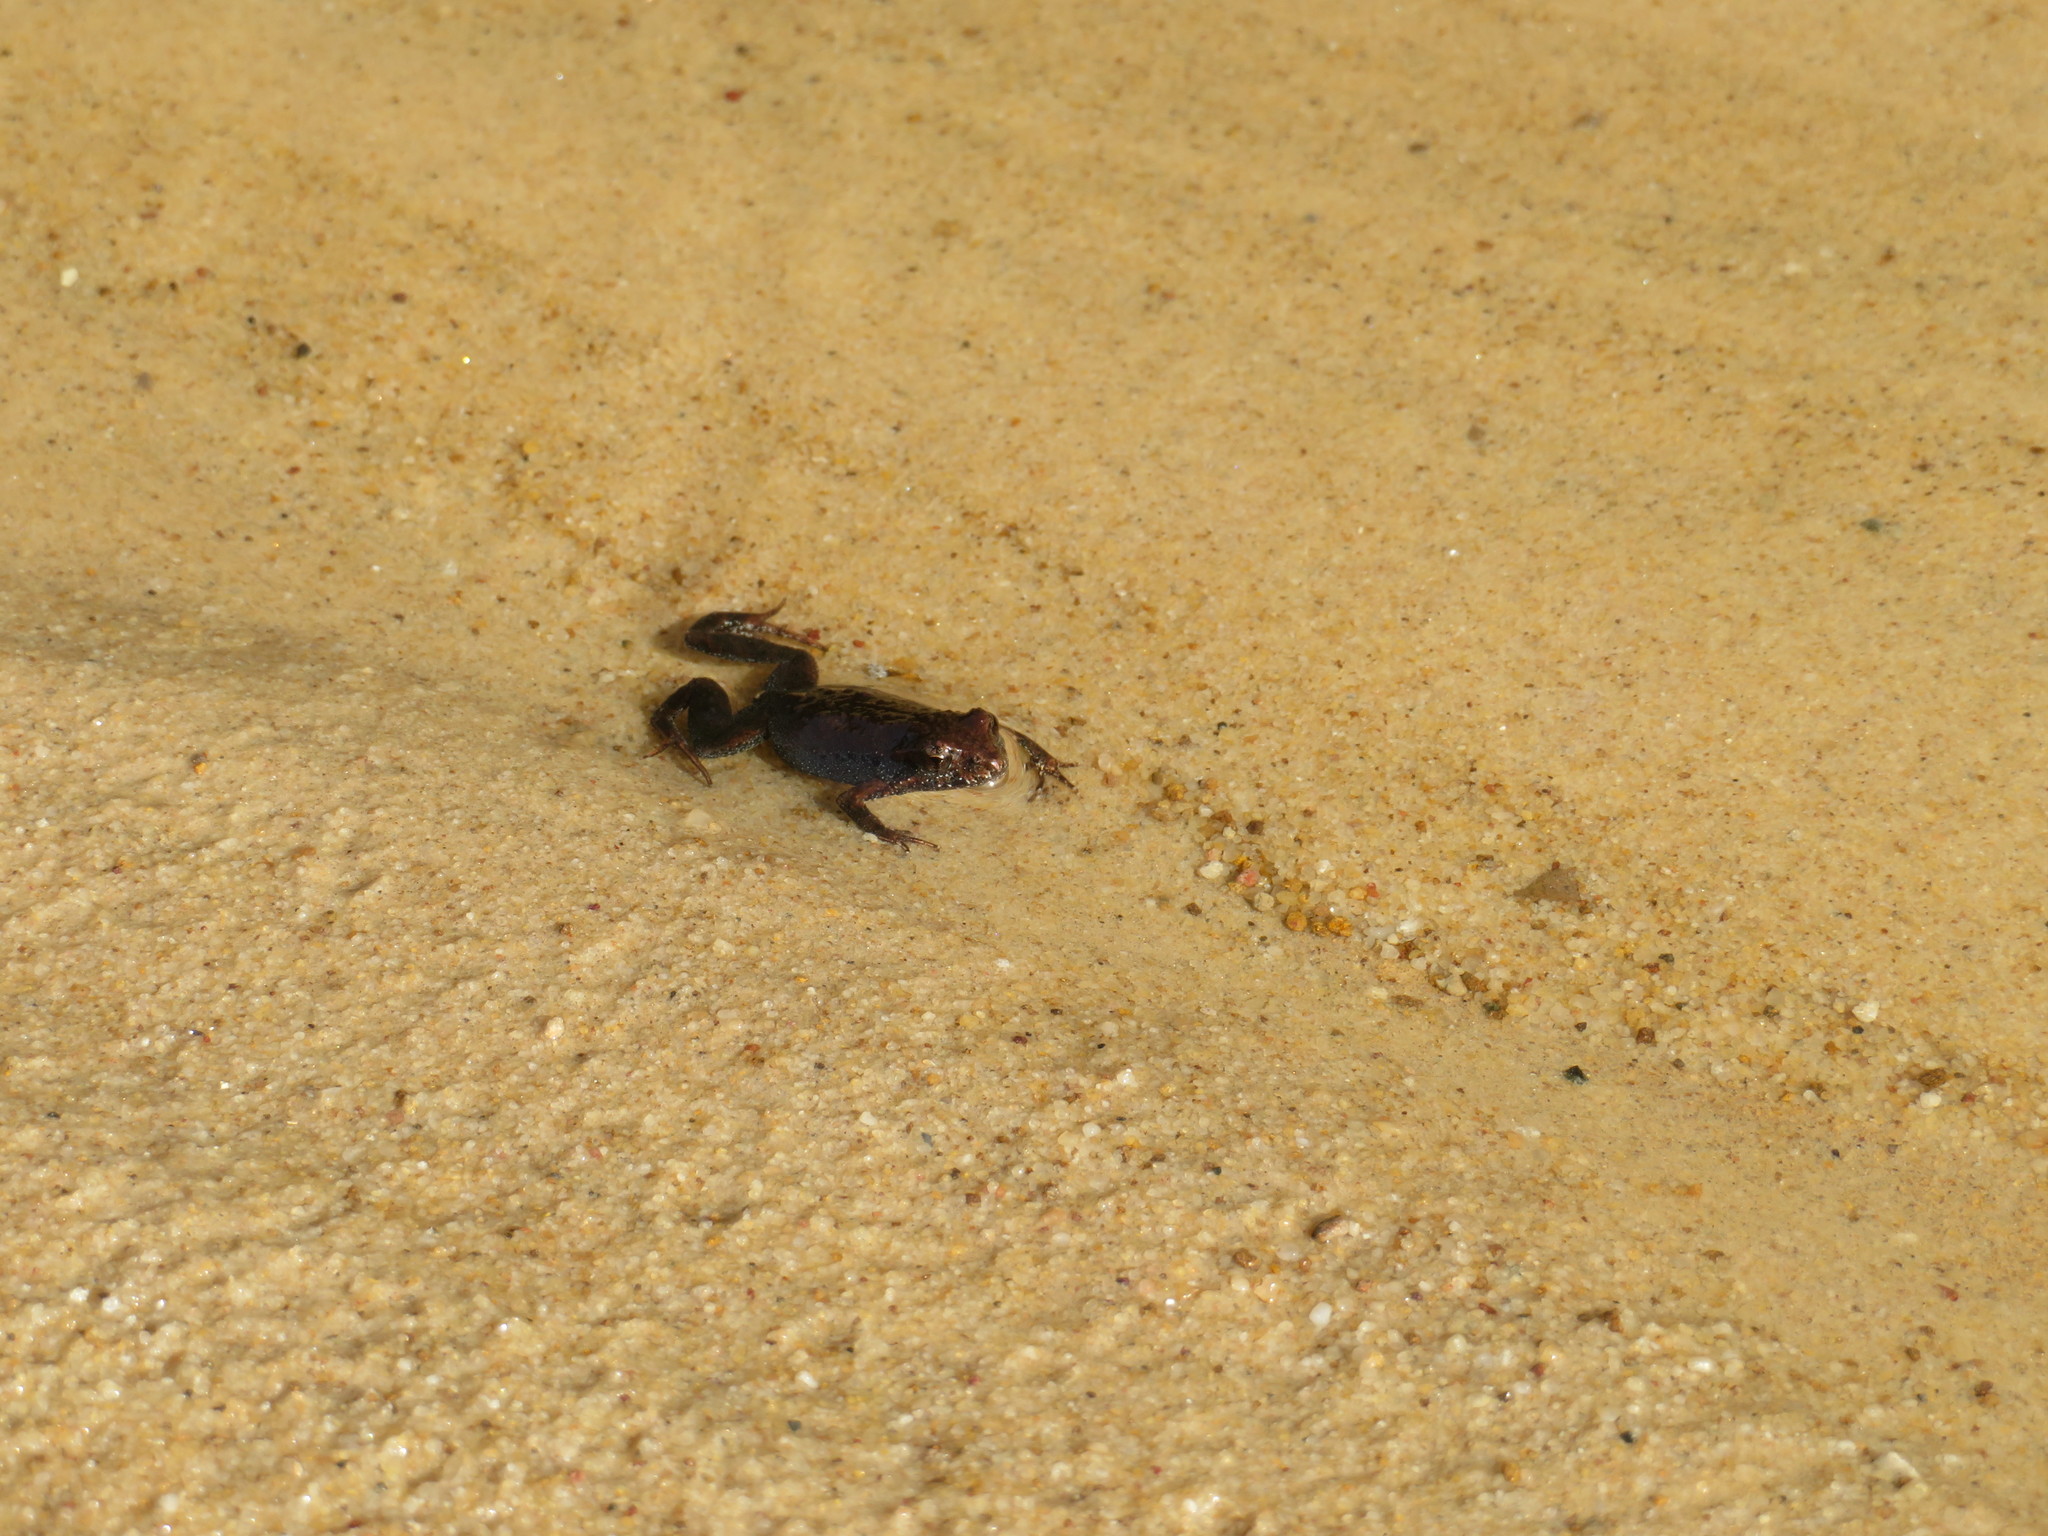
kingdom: Animalia
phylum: Chordata
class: Amphibia
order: Anura
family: Myobatrachidae
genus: Crinia
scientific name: Crinia signifera
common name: Brown froglet
